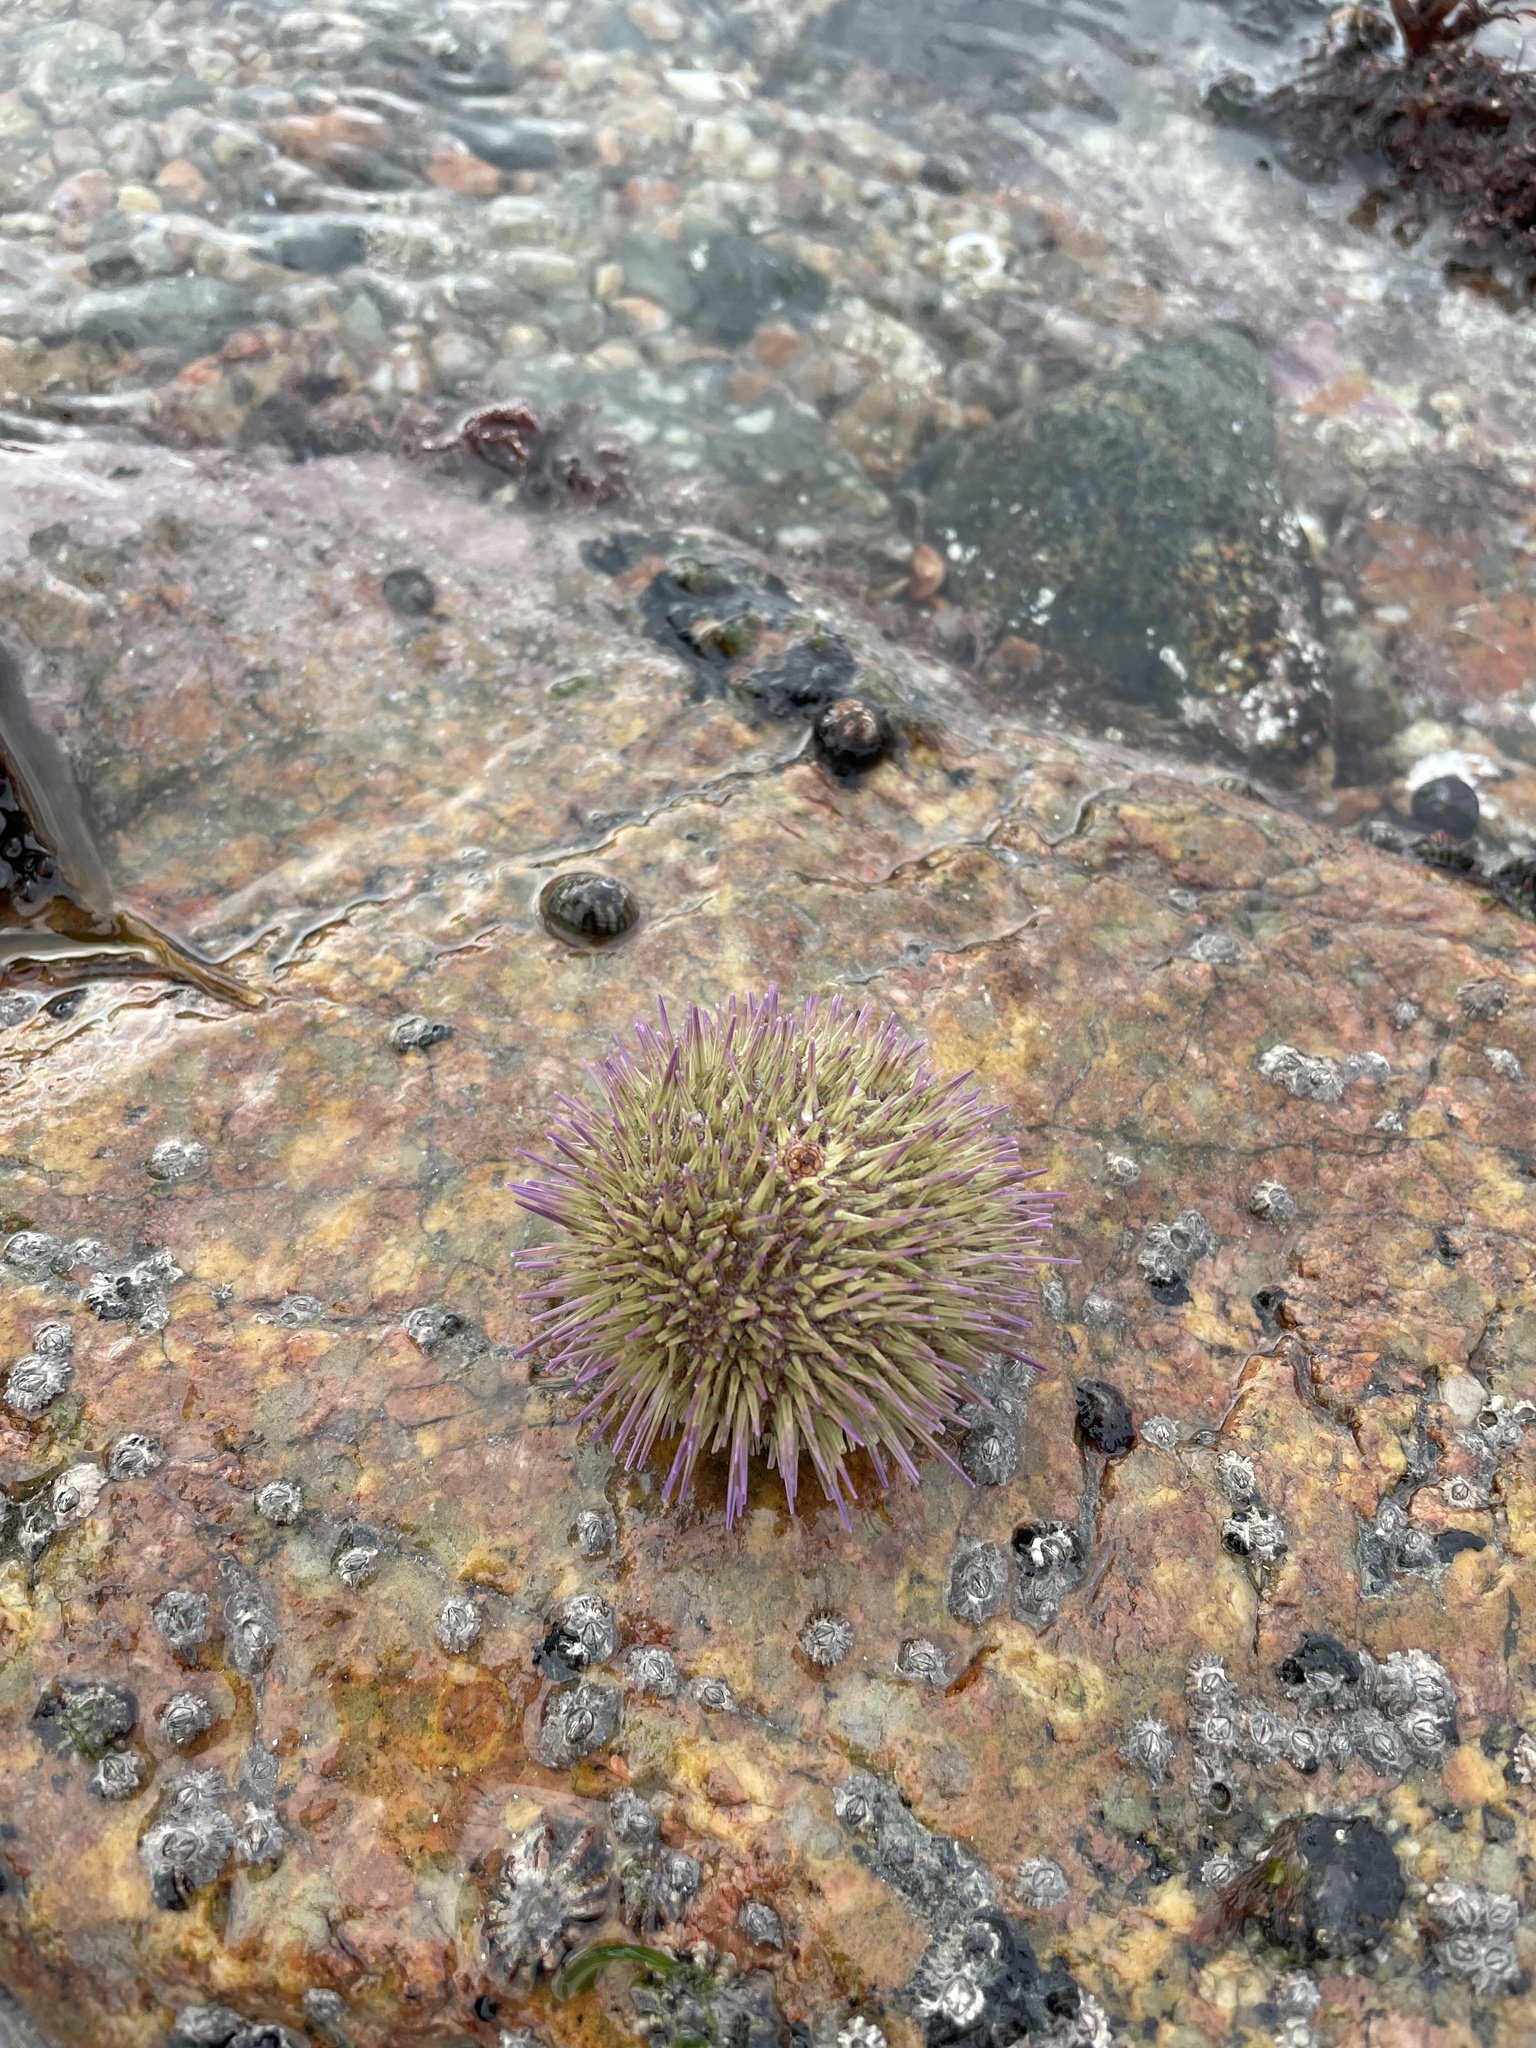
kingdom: Animalia
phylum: Echinodermata
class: Echinoidea
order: Camarodonta
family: Parechinidae
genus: Psammechinus
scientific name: Psammechinus miliaris
